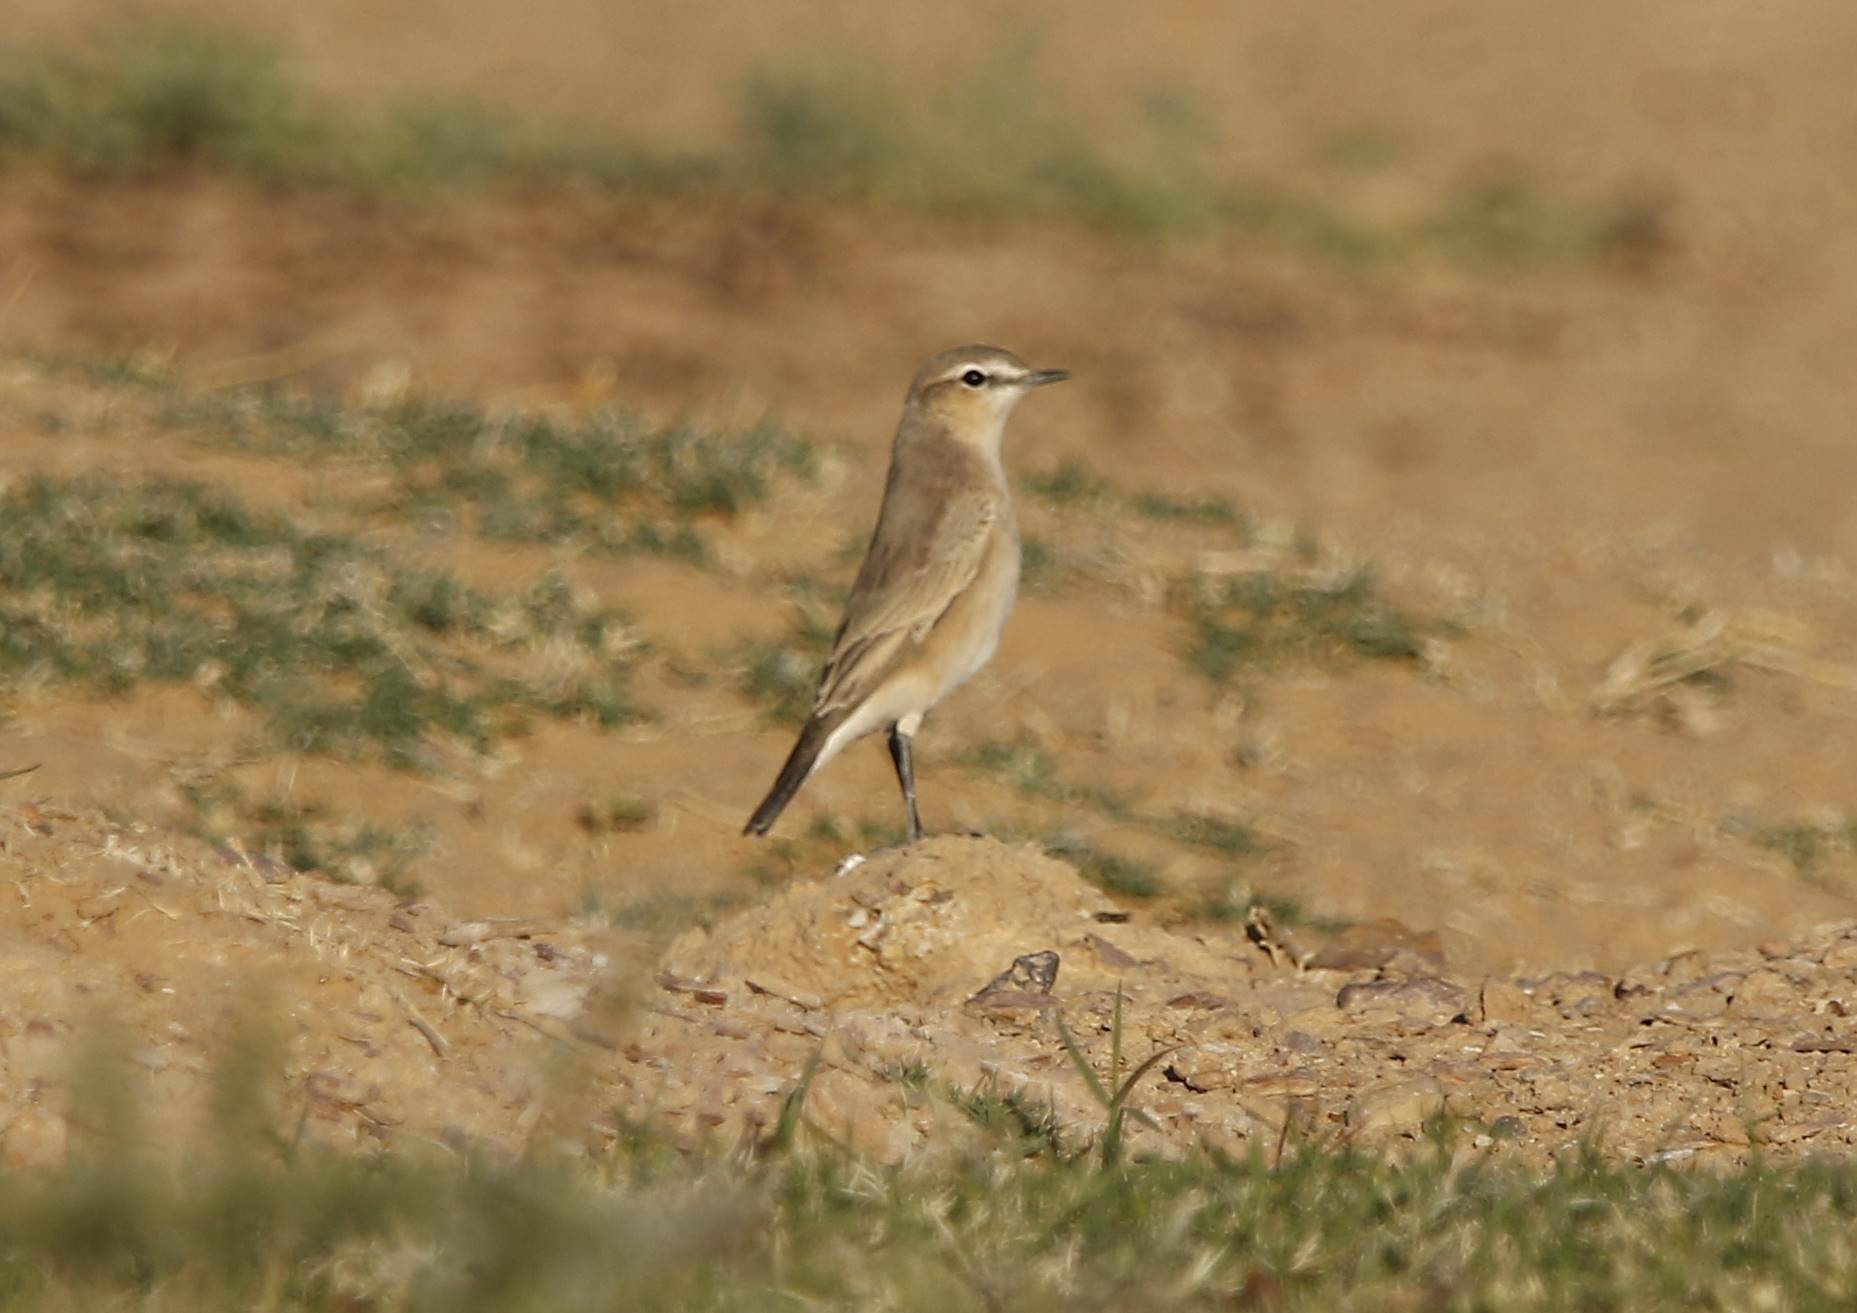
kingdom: Animalia
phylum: Chordata
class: Aves
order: Passeriformes
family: Muscicapidae
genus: Oenanthe
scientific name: Oenanthe isabellina
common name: Isabelline wheatear
